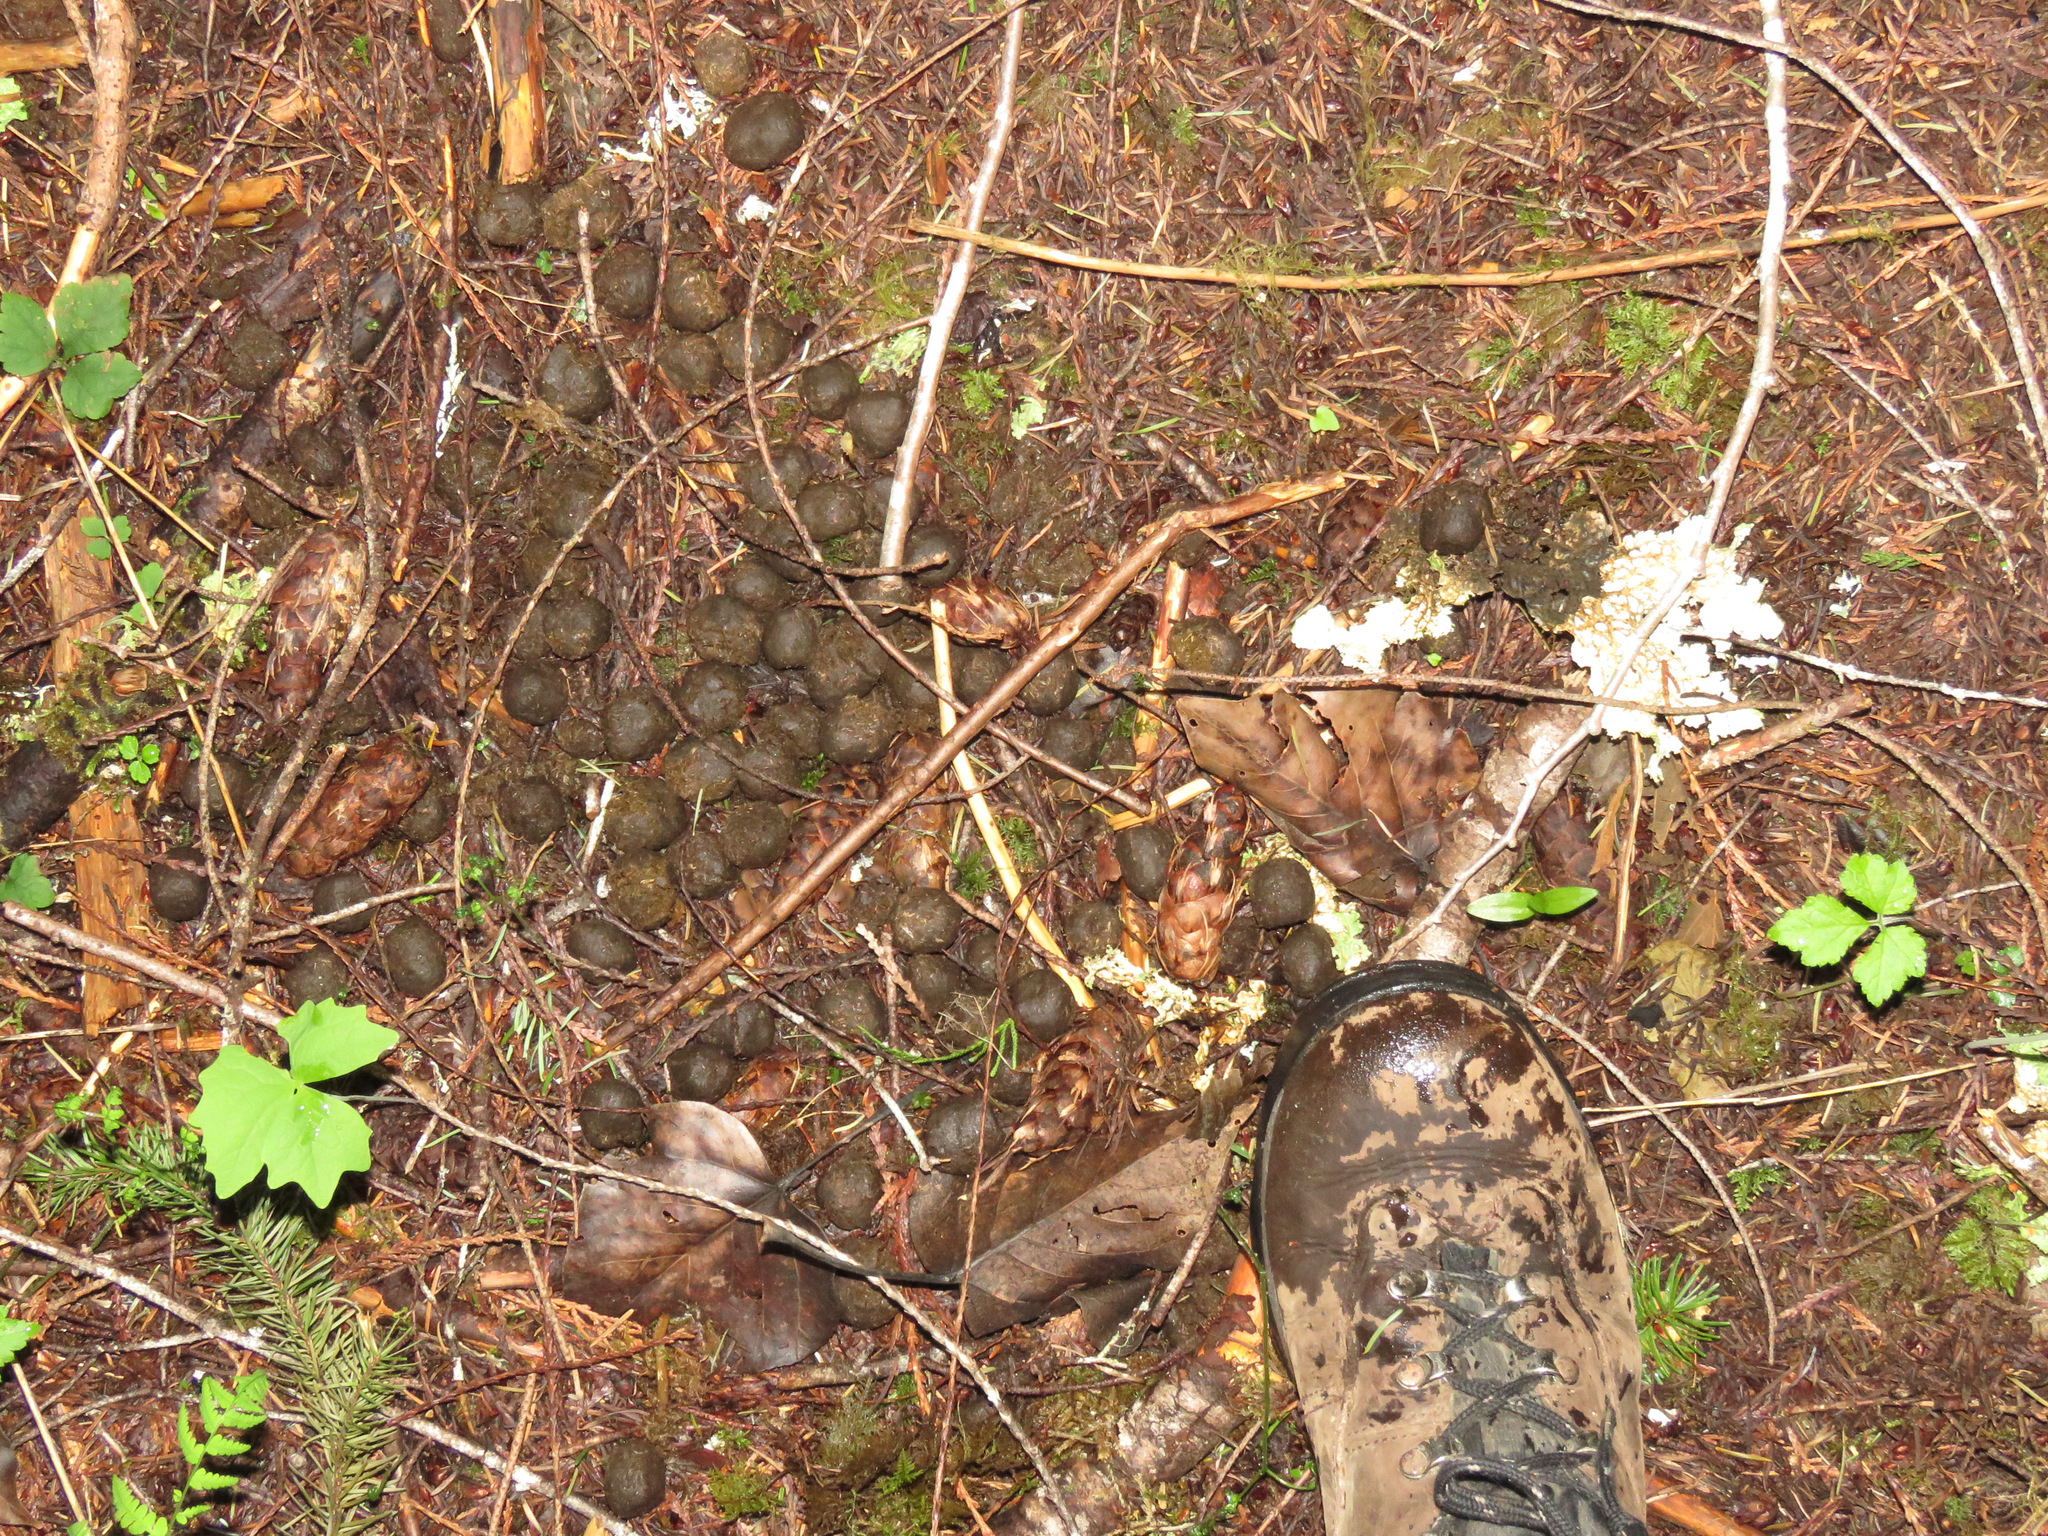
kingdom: Animalia
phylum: Chordata
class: Mammalia
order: Artiodactyla
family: Cervidae
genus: Cervus
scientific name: Cervus elaphus
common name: Red deer
